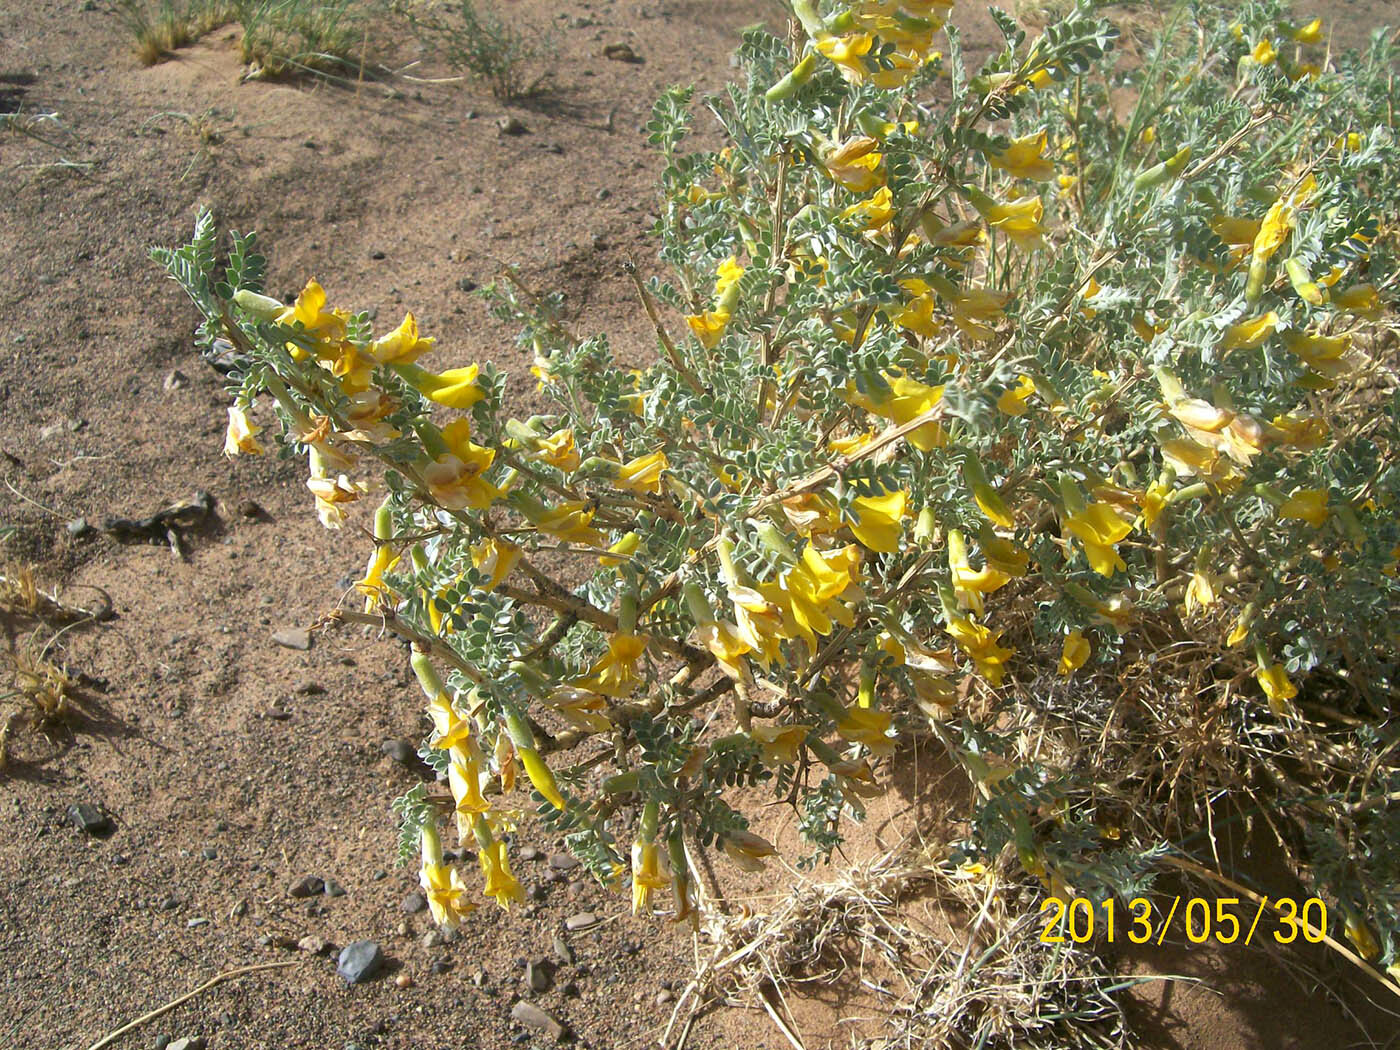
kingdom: Plantae
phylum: Tracheophyta
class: Magnoliopsida
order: Fabales
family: Fabaceae
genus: Caragana
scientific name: Caragana korshinskii
